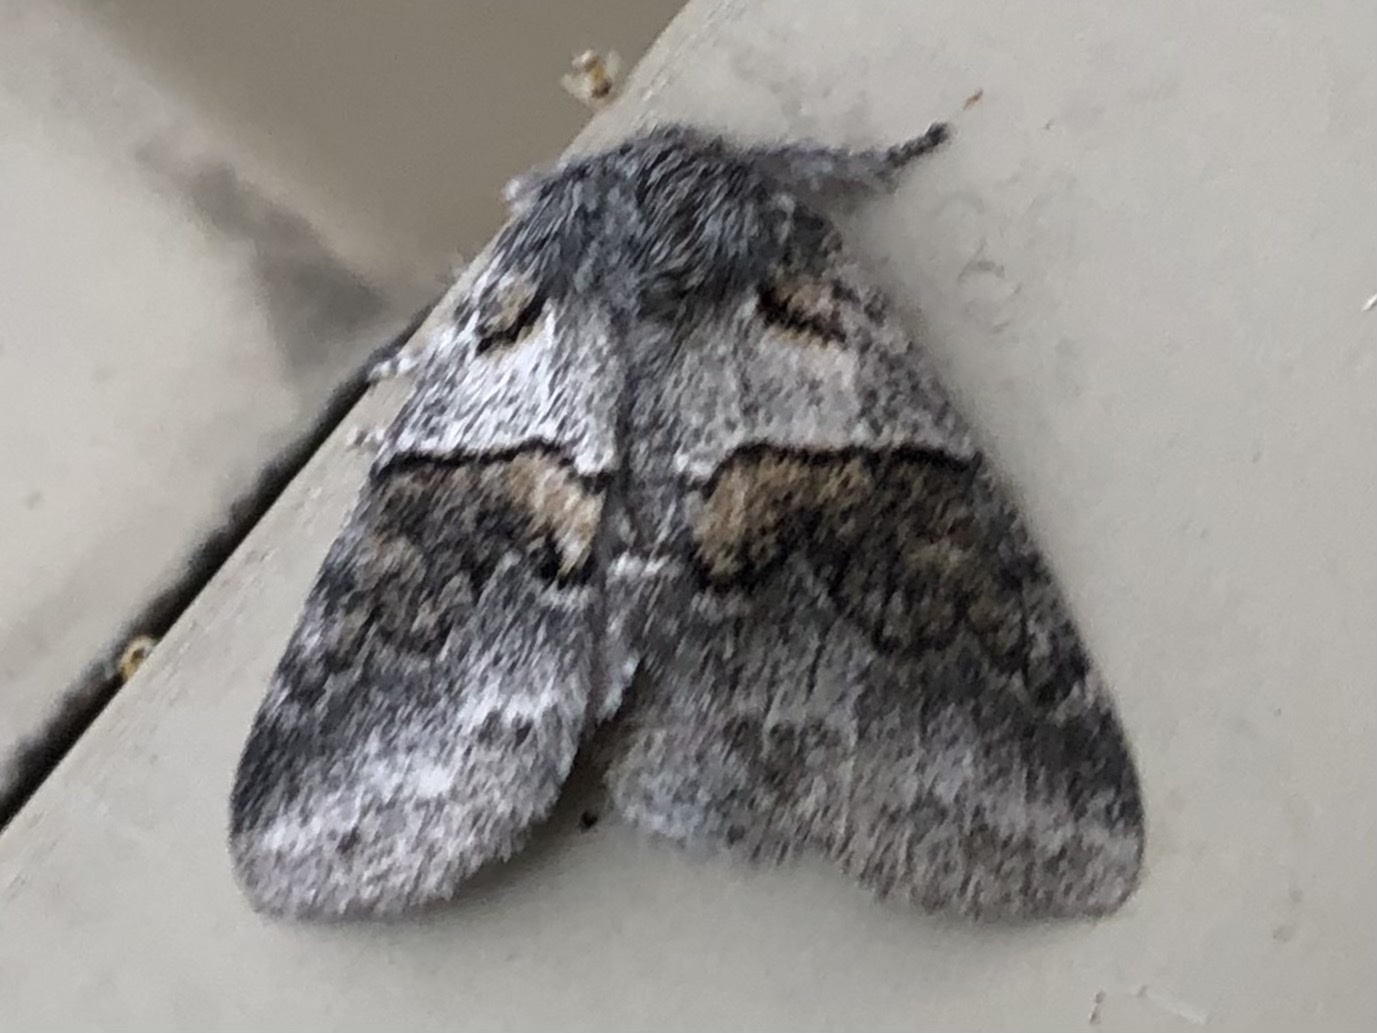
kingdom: Animalia
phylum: Arthropoda
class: Insecta
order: Lepidoptera
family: Notodontidae
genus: Gluphisia
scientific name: Gluphisia septentrionis
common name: Common gluphisia
